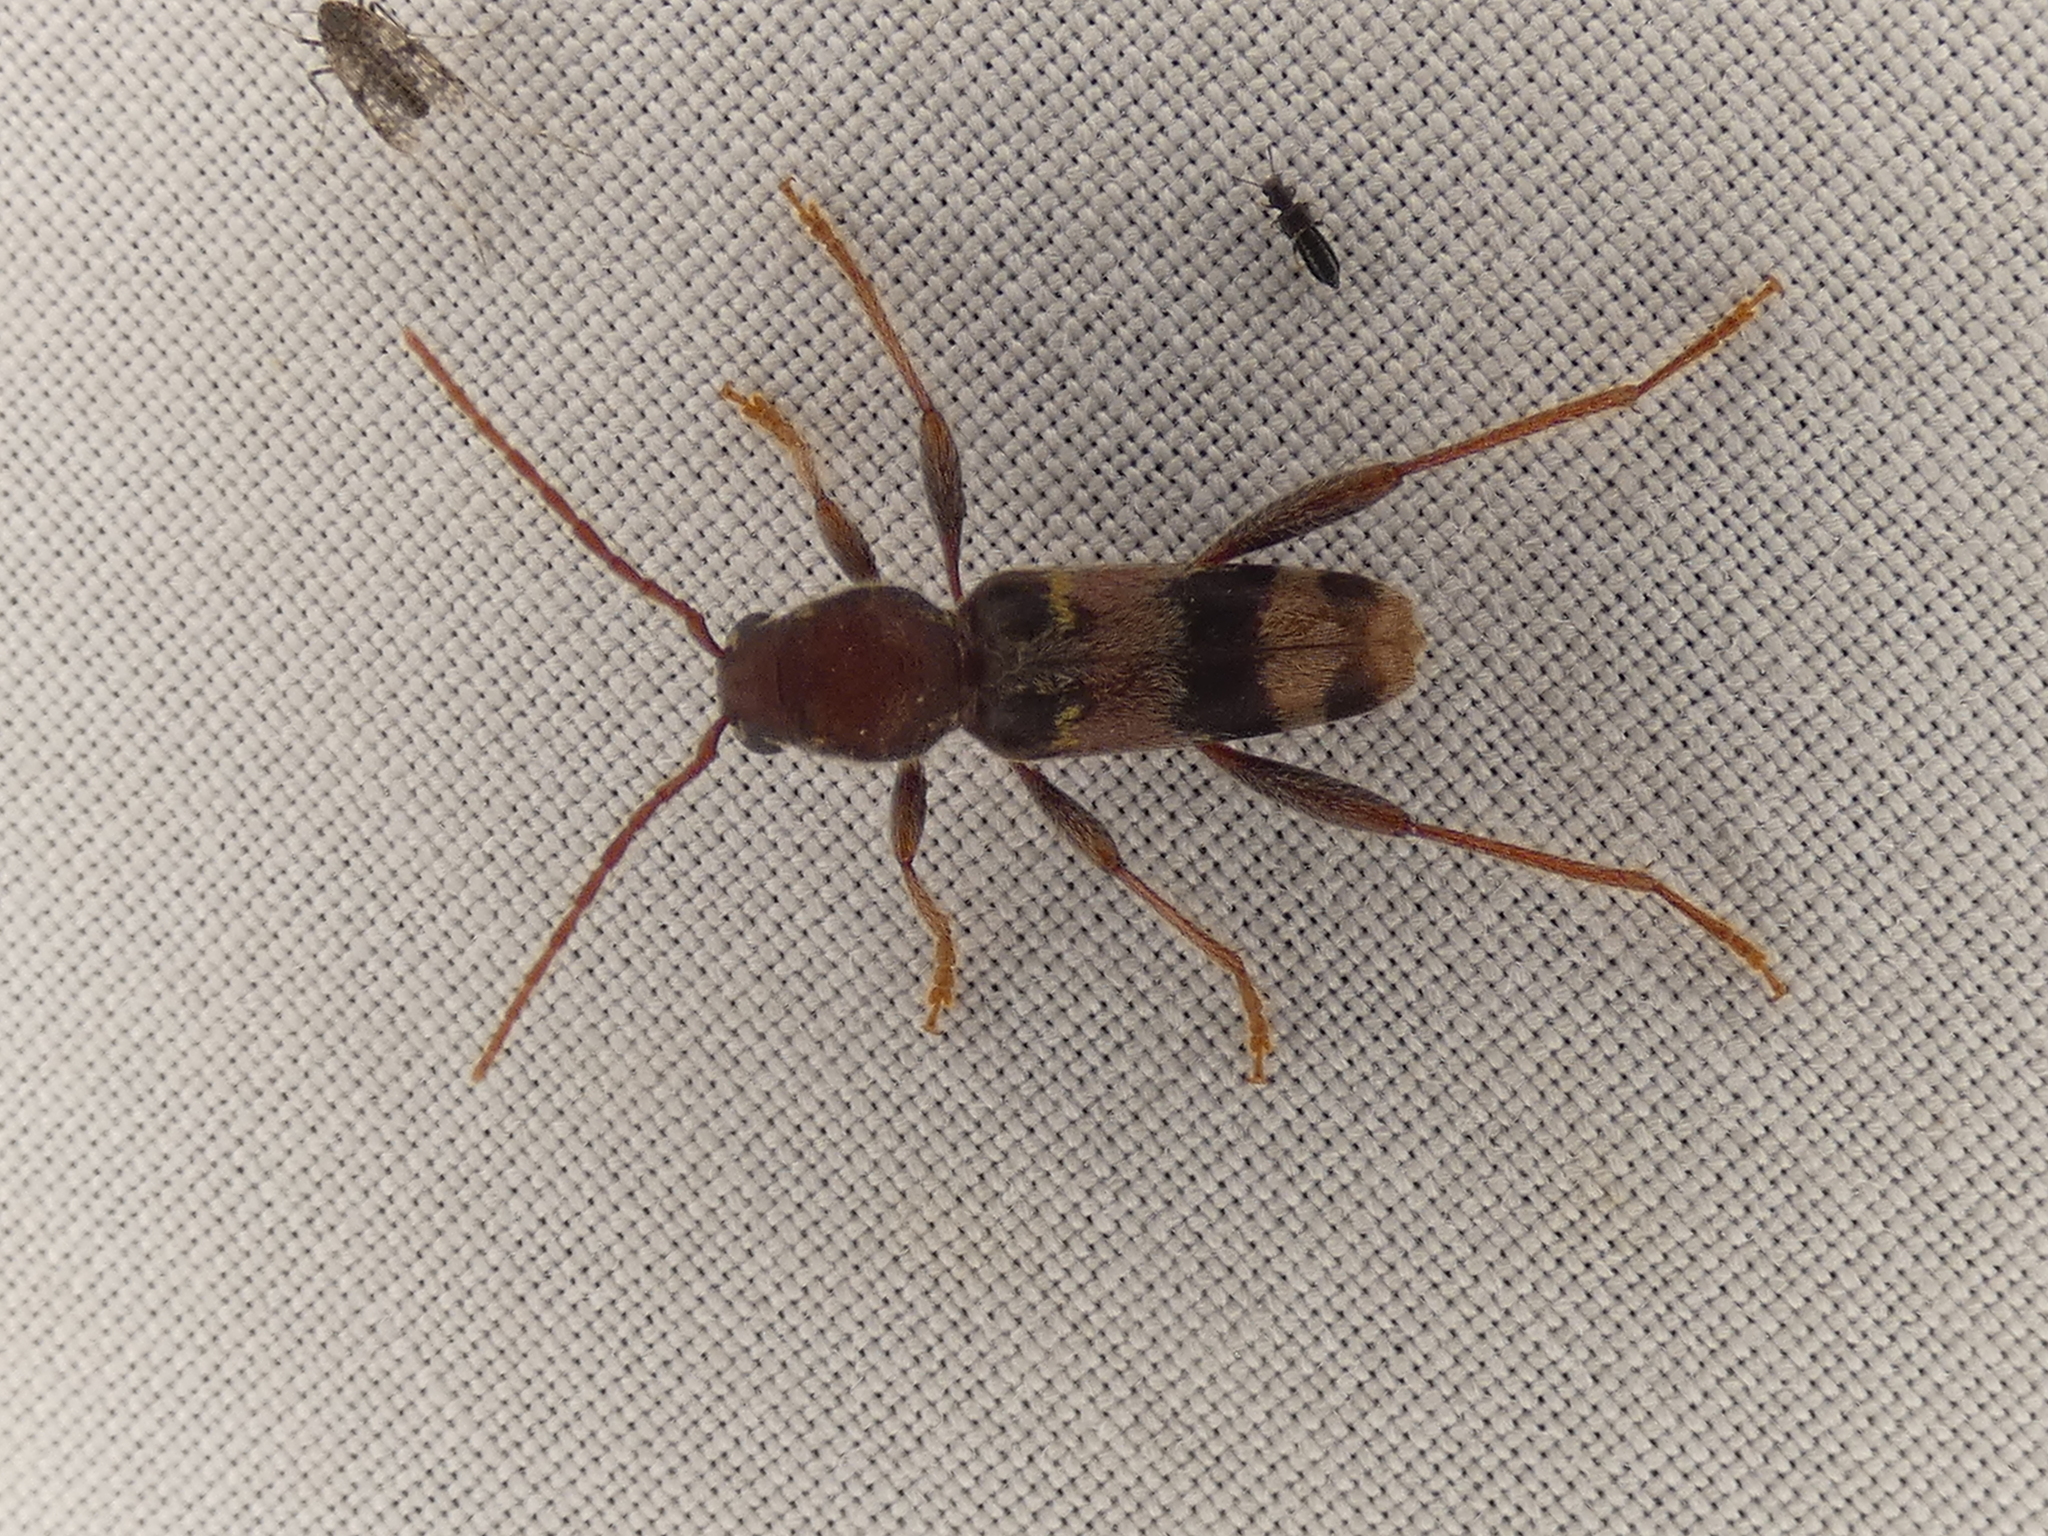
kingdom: Animalia
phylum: Arthropoda
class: Insecta
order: Coleoptera
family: Cerambycidae
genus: Xylotrechus
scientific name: Xylotrechus colonus
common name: Long-horned beetle
